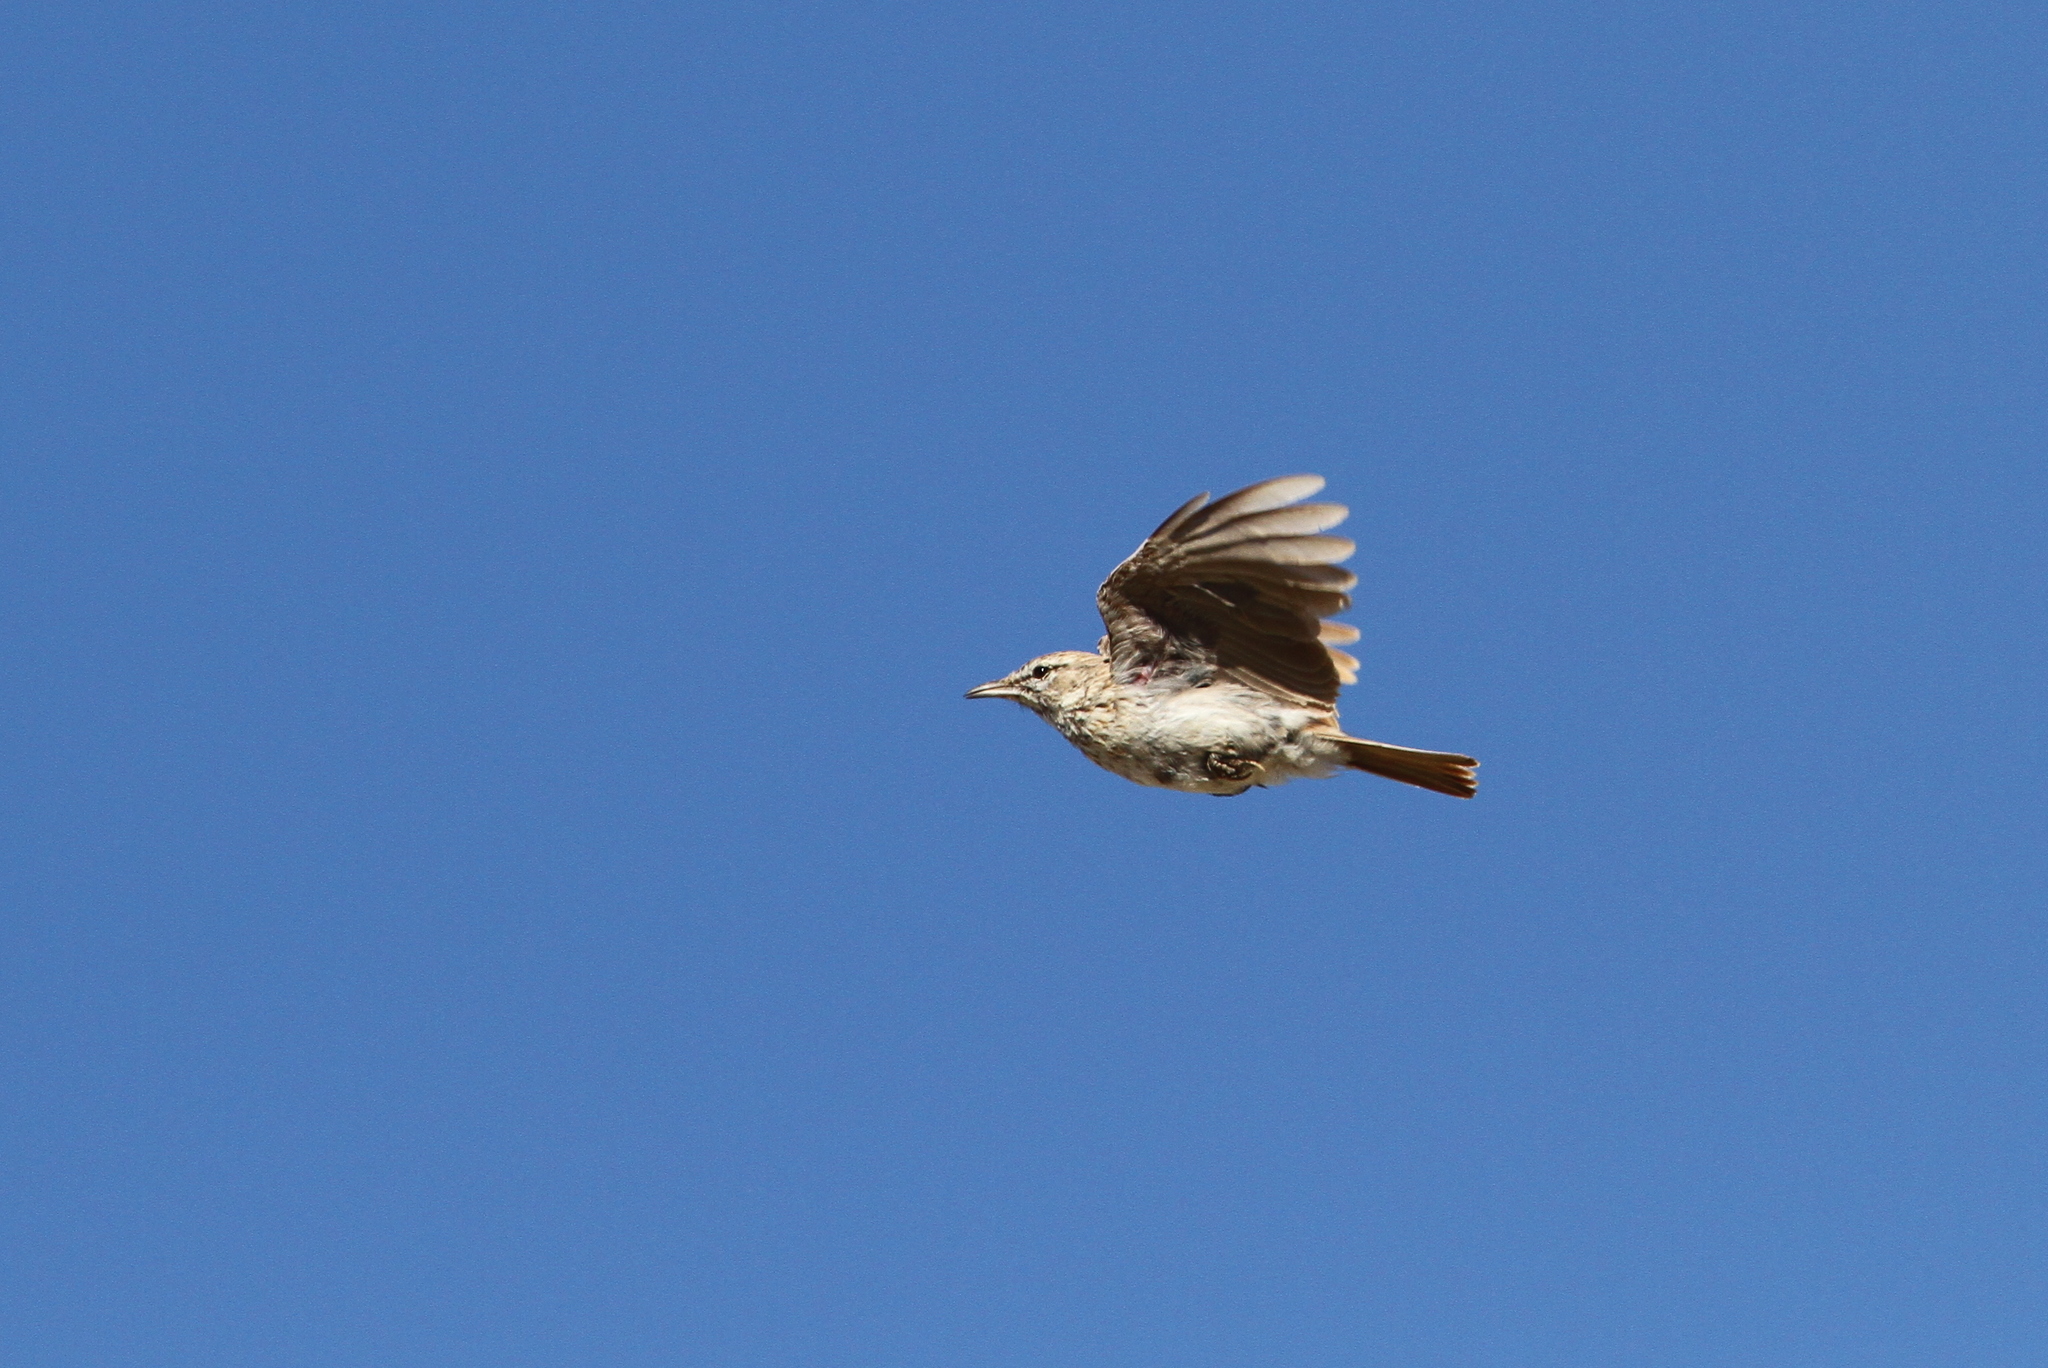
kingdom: Animalia
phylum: Chordata
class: Aves
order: Passeriformes
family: Alaudidae
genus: Calendulauda
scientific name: Calendulauda erythrochlamys
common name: Dune lark
